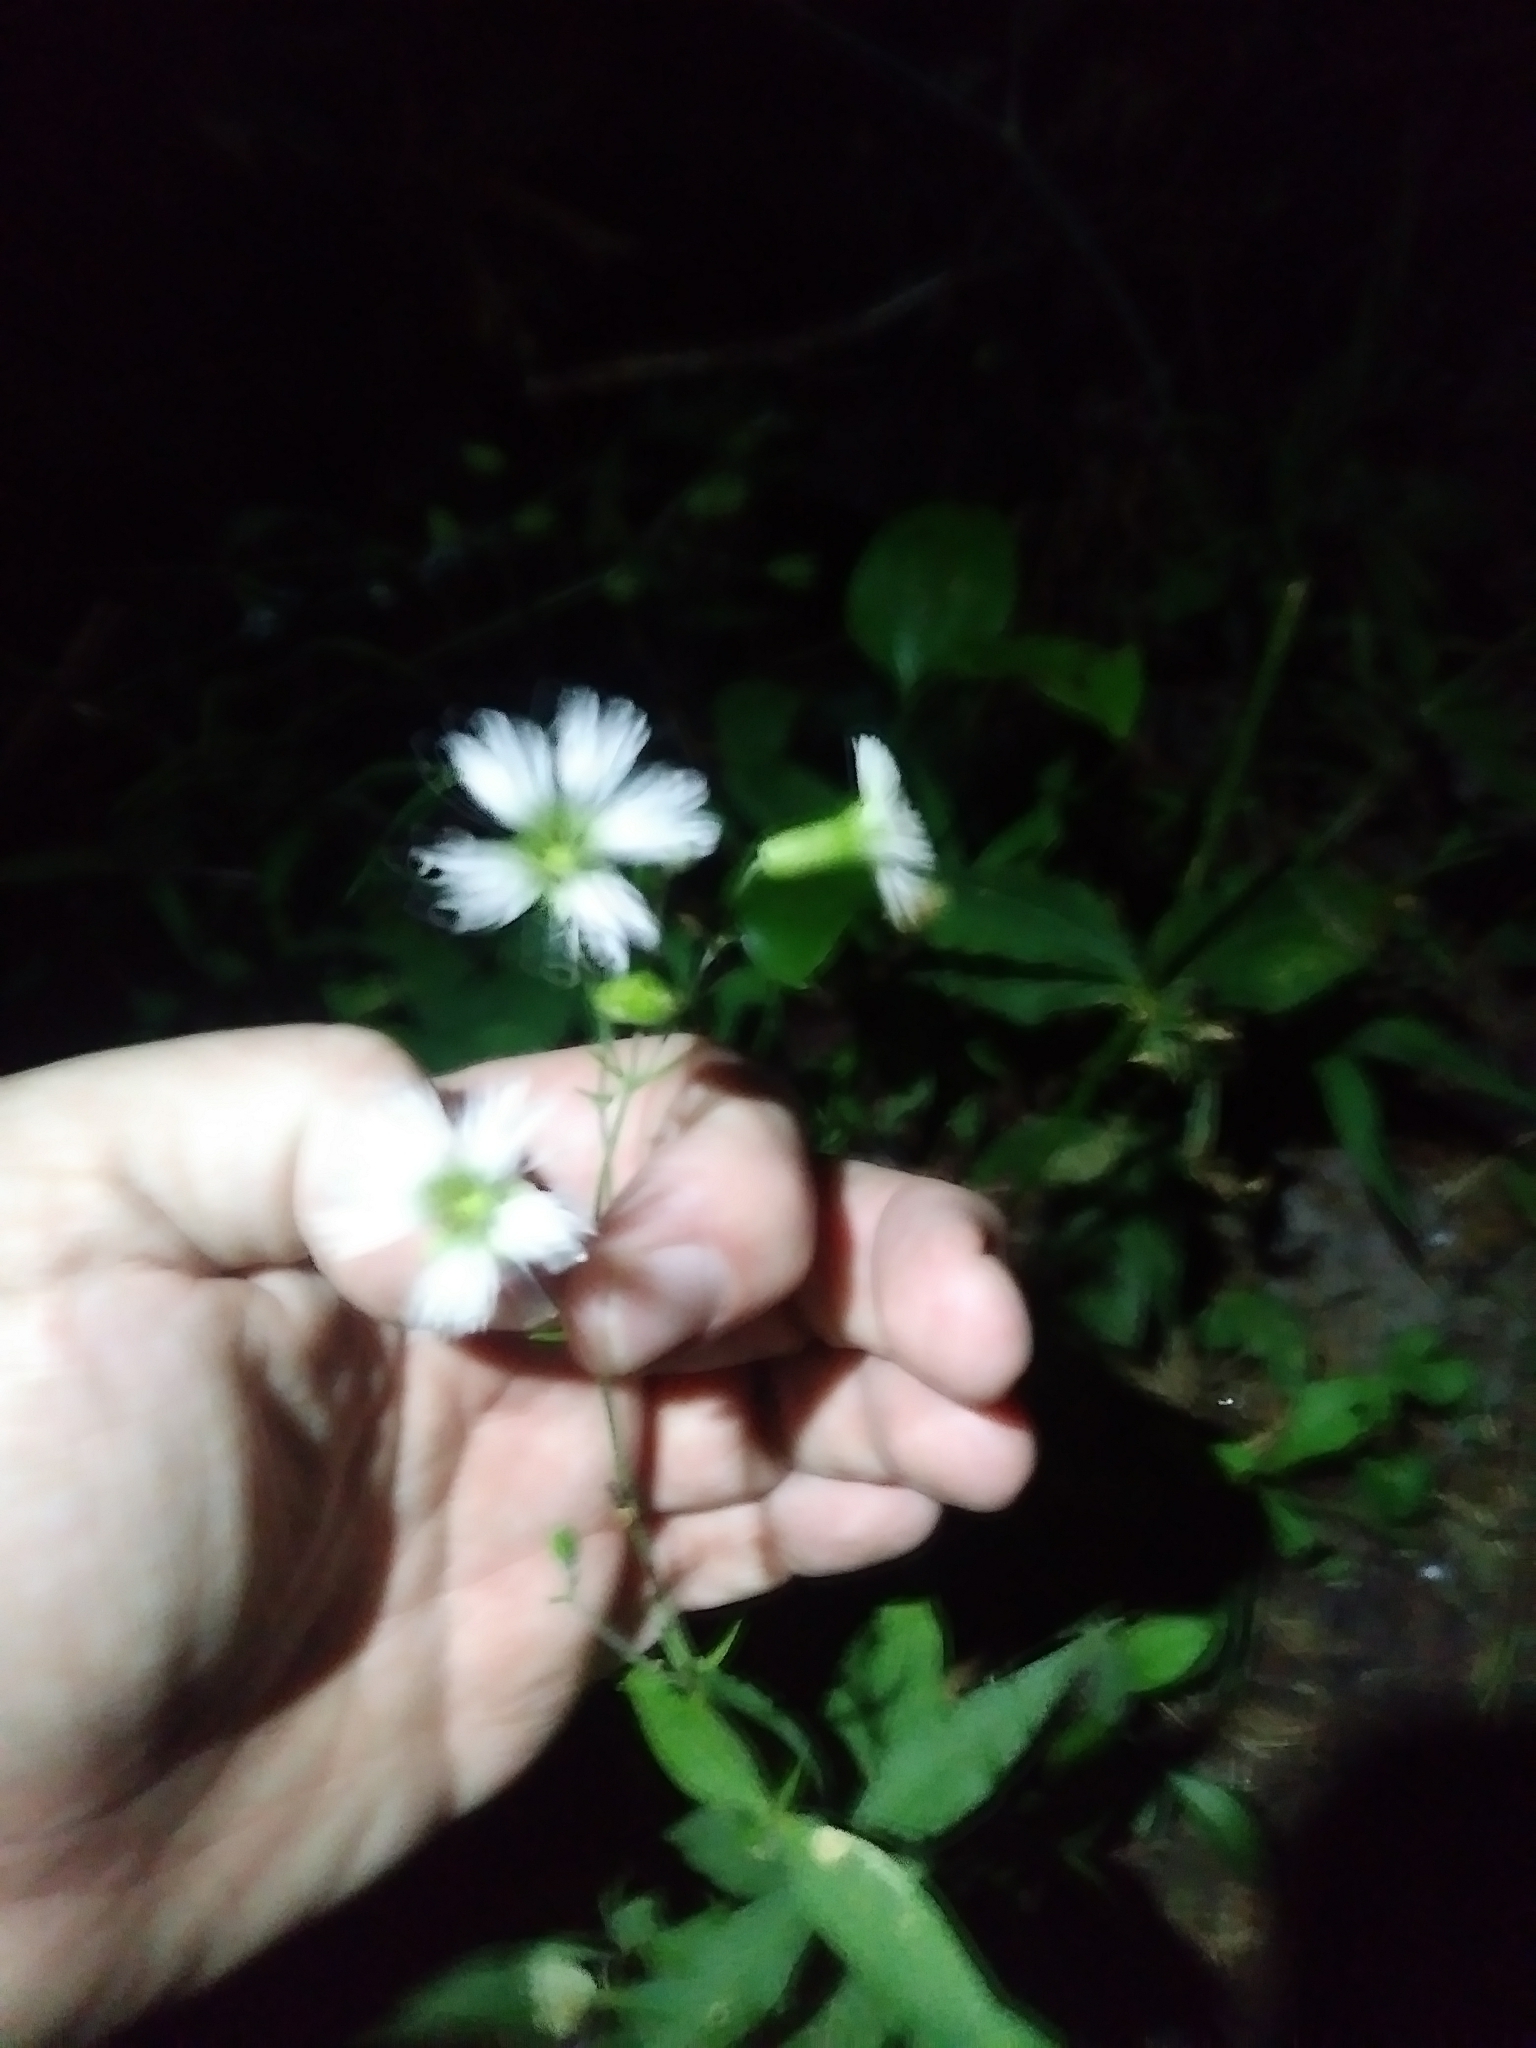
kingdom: Plantae
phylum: Tracheophyta
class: Magnoliopsida
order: Caryophyllales
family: Caryophyllaceae
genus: Silene
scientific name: Silene stellata
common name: Starry campion
